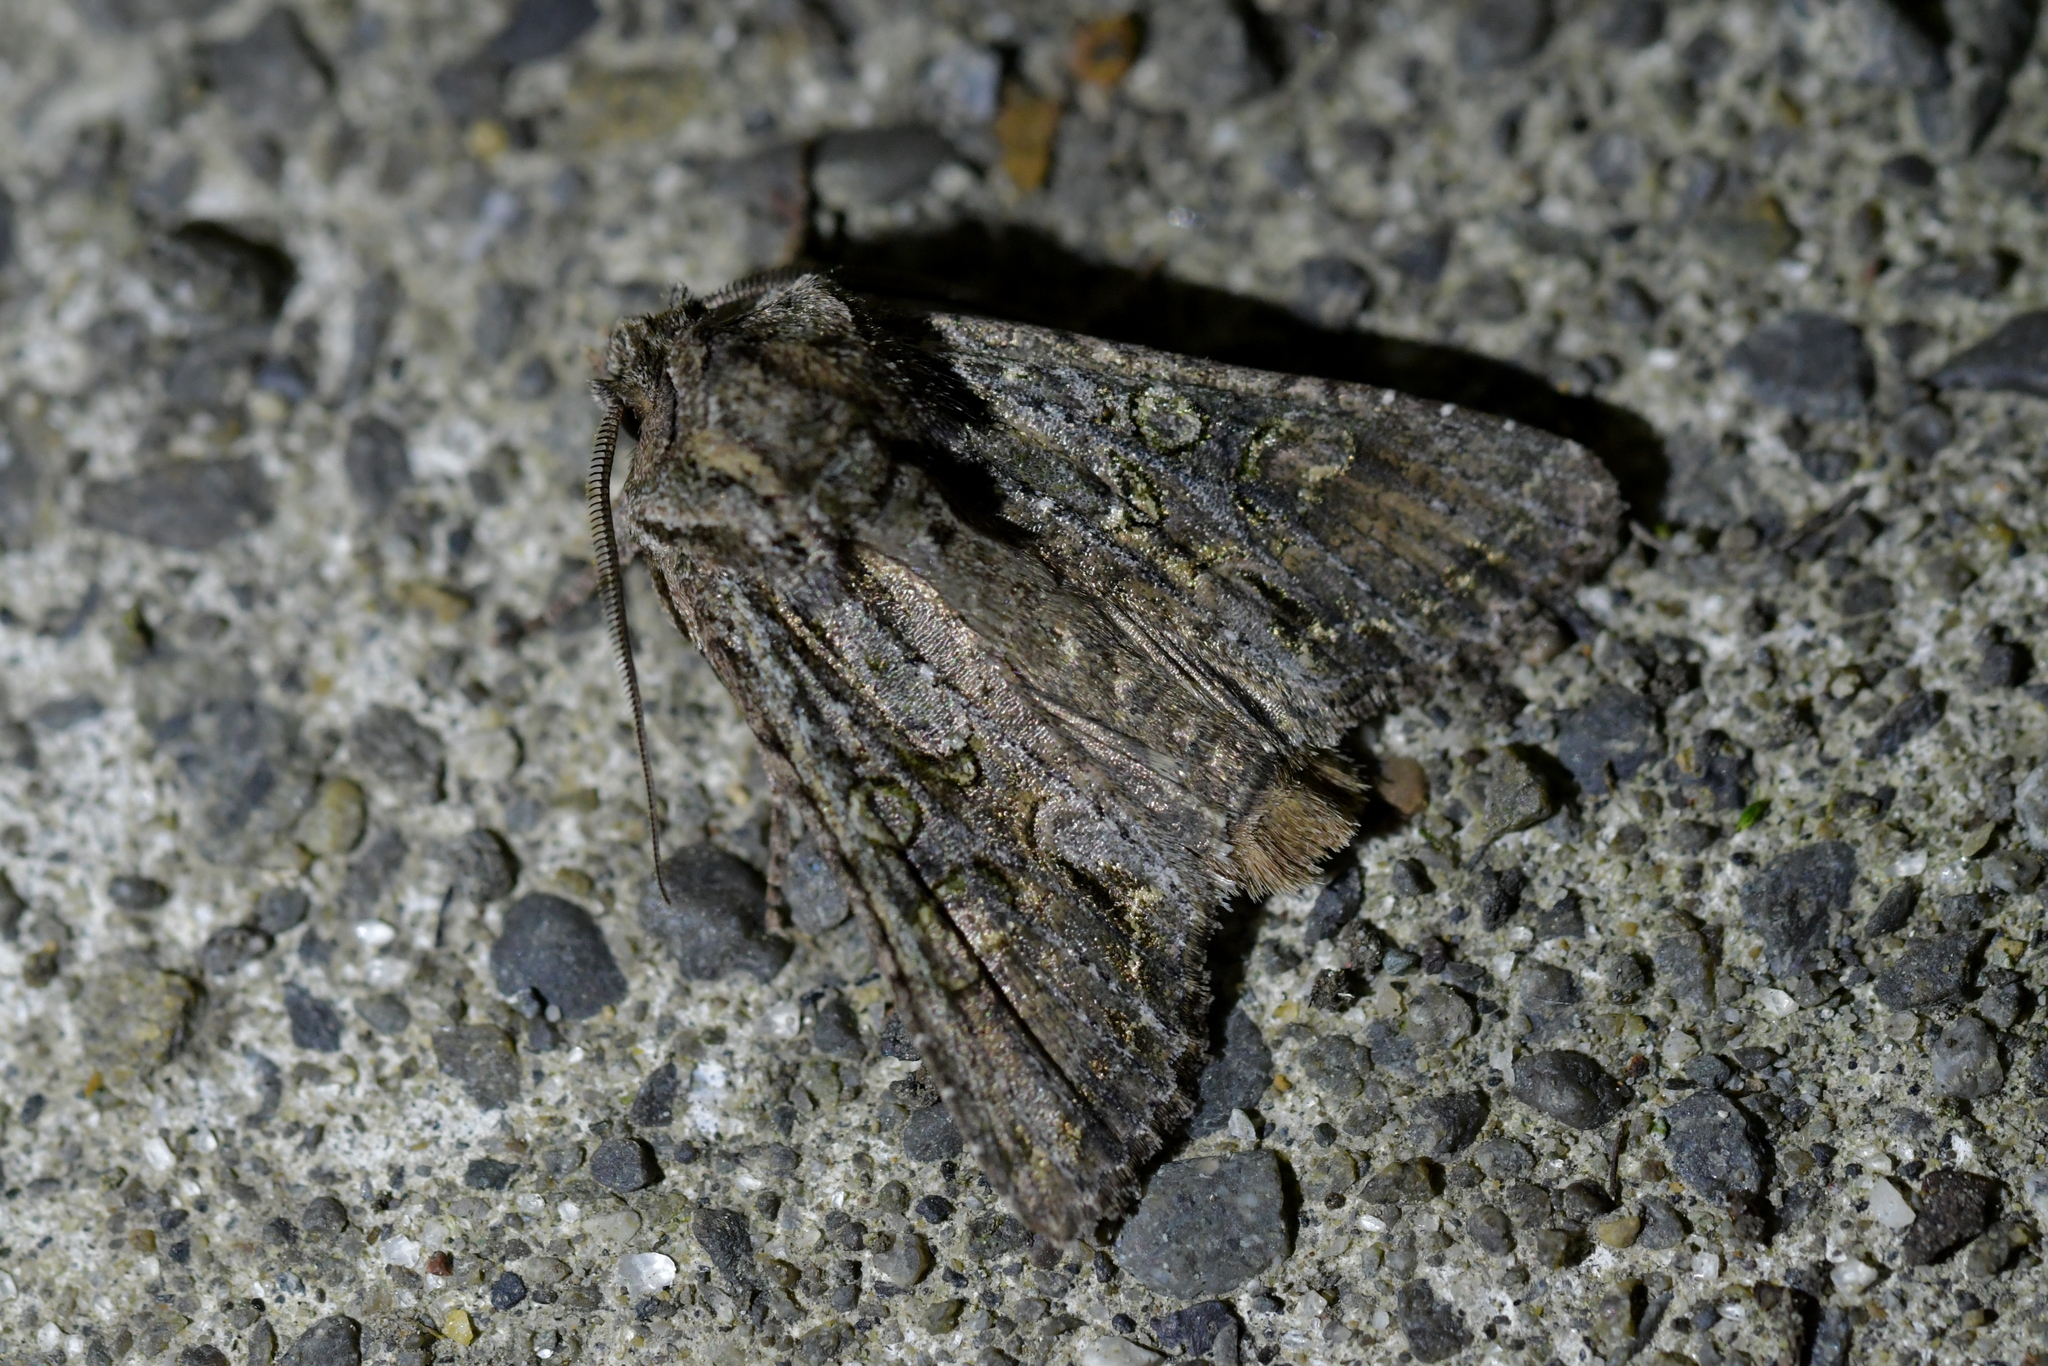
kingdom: Animalia
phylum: Arthropoda
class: Insecta
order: Lepidoptera
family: Noctuidae
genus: Ichneutica
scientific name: Ichneutica mutans
